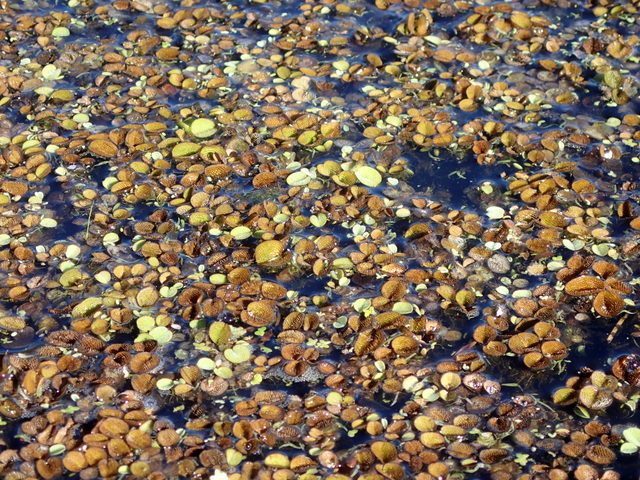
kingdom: Plantae
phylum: Tracheophyta
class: Polypodiopsida
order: Salviniales
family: Salviniaceae
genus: Salvinia
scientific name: Salvinia minima
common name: Water spangles
